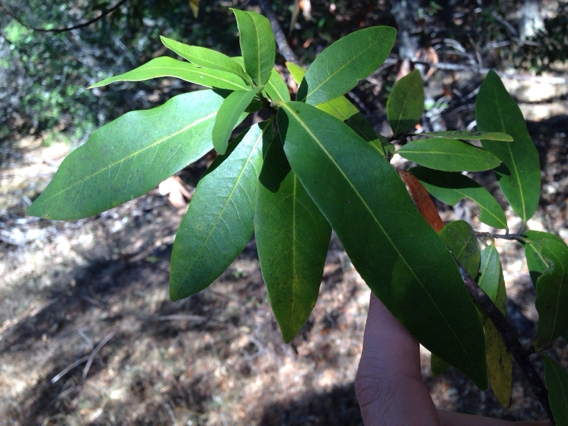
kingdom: Plantae
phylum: Tracheophyta
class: Magnoliopsida
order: Laurales
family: Lauraceae
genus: Umbellularia
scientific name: Umbellularia californica
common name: California bay
